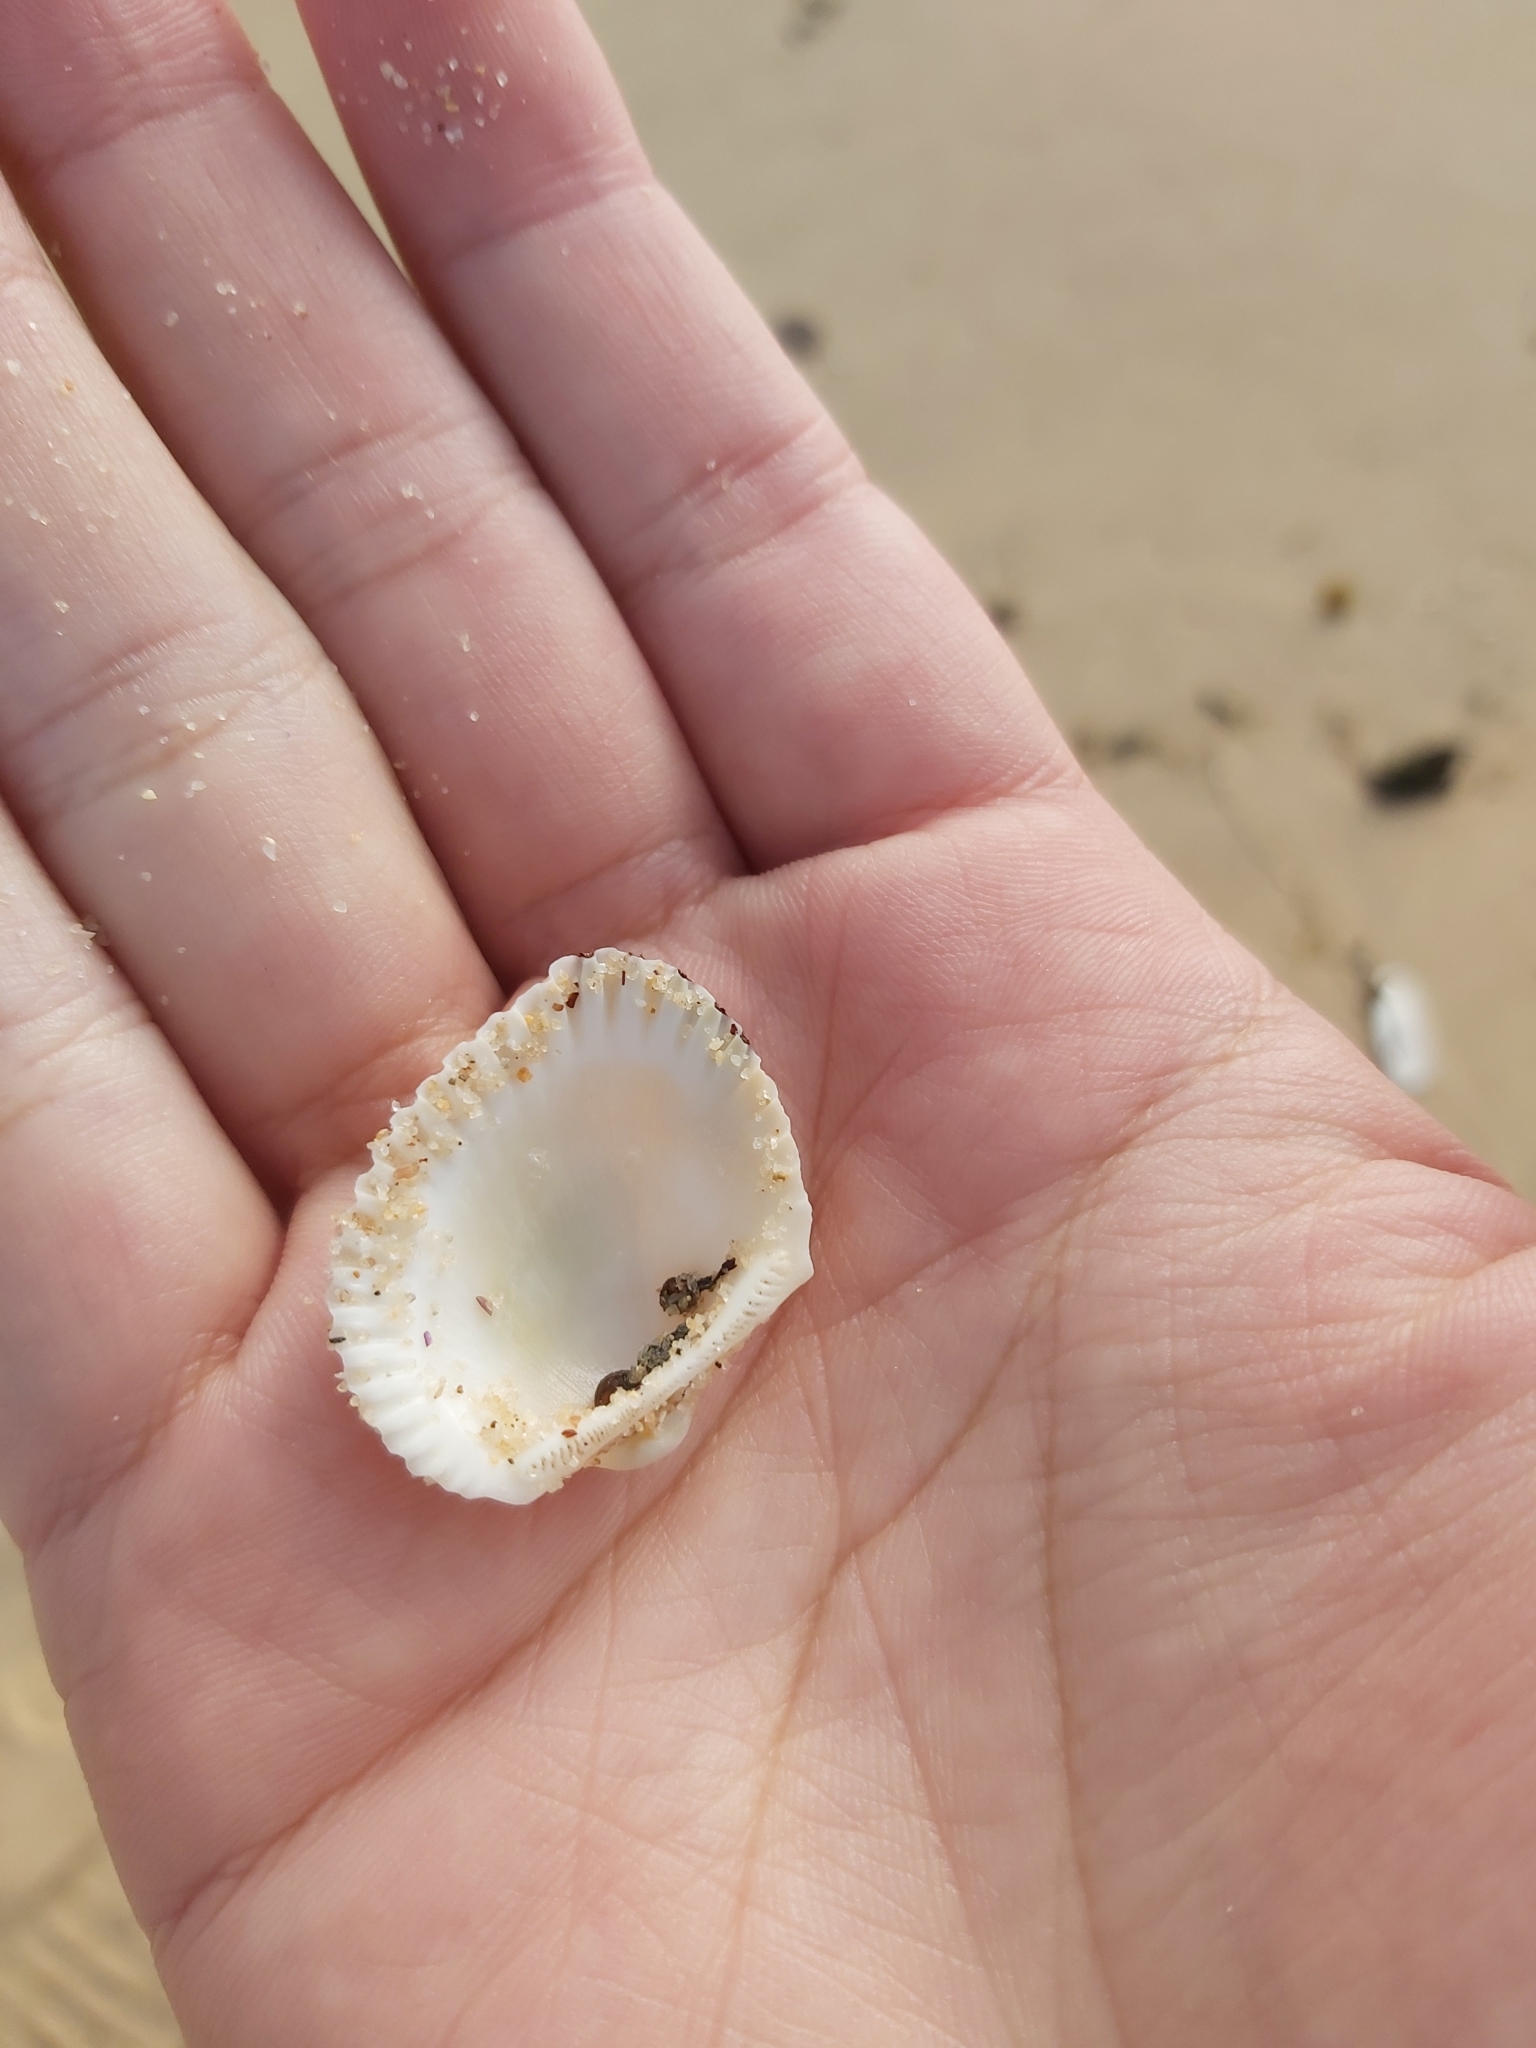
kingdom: Animalia
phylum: Mollusca
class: Bivalvia
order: Arcida
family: Arcidae
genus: Anadara
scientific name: Anadara trapezia
